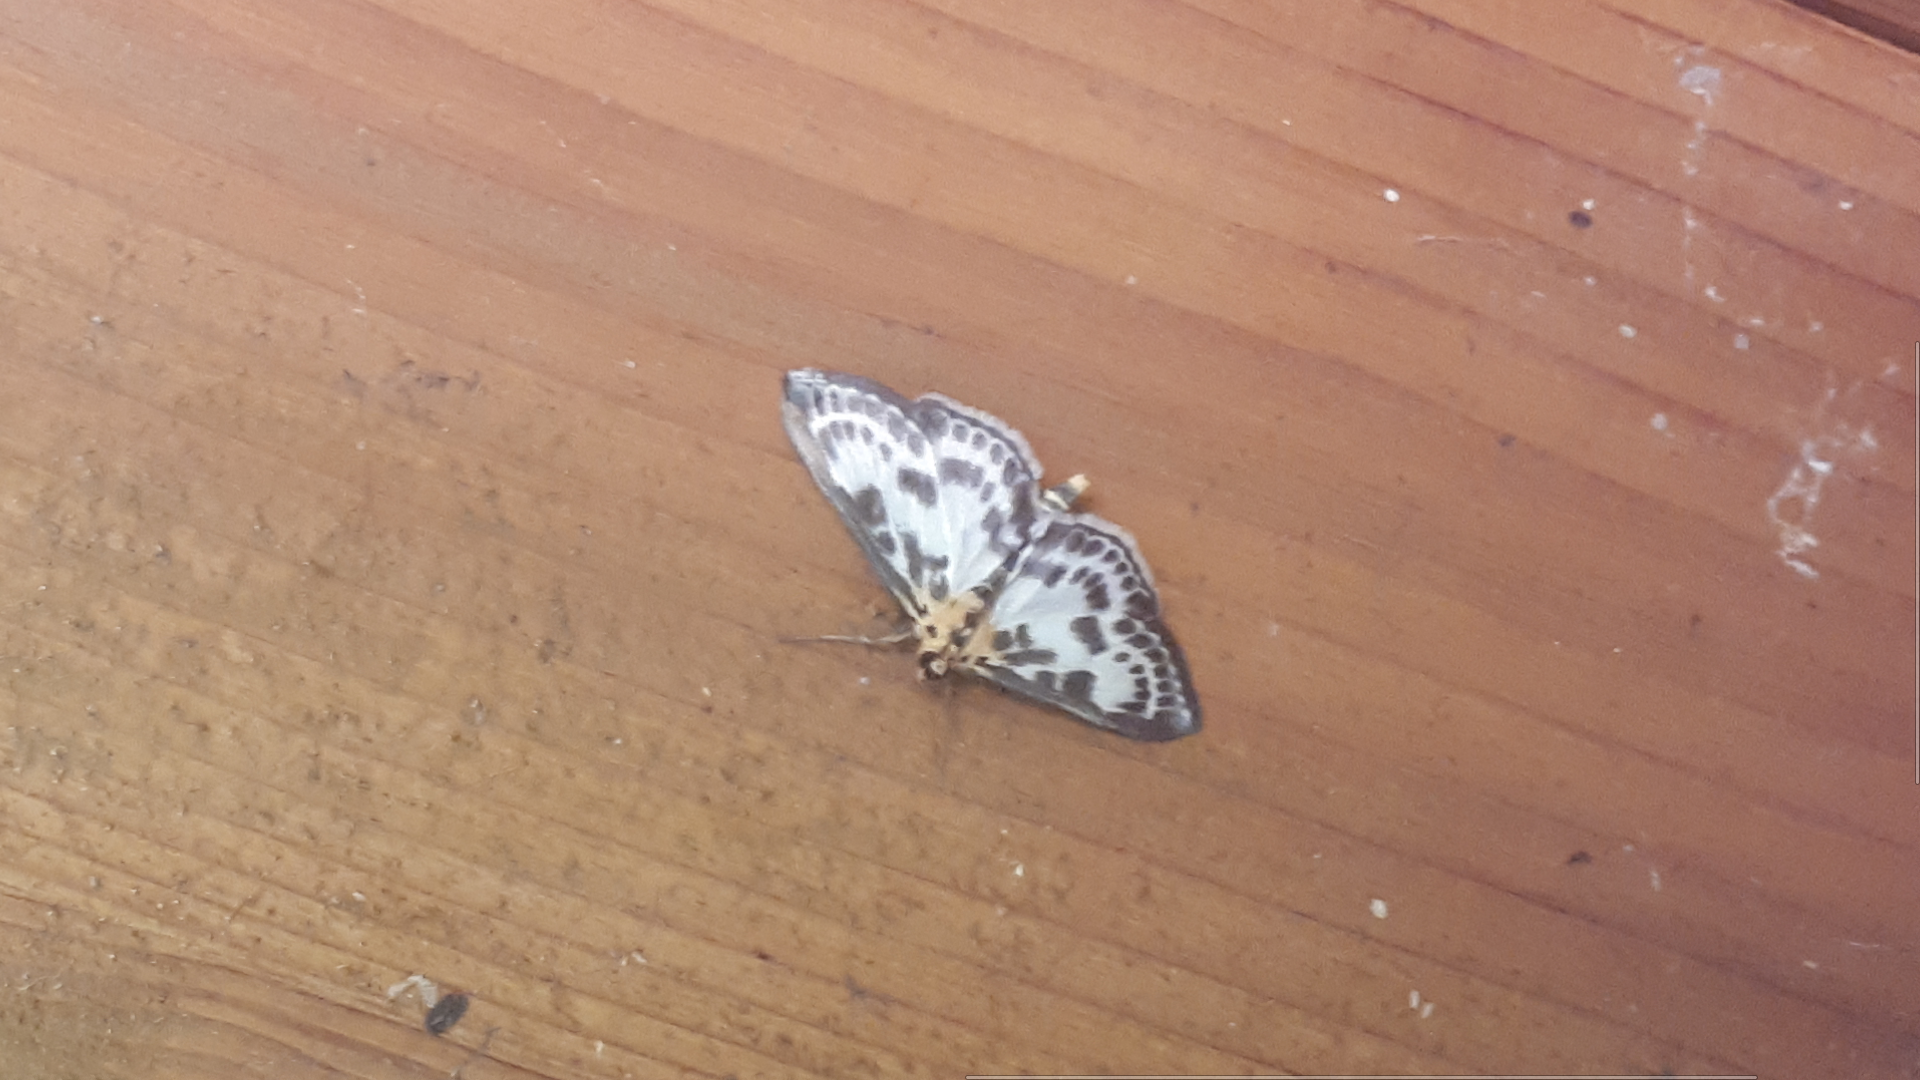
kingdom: Animalia
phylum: Arthropoda
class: Insecta
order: Lepidoptera
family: Crambidae
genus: Anania
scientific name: Anania hortulata
